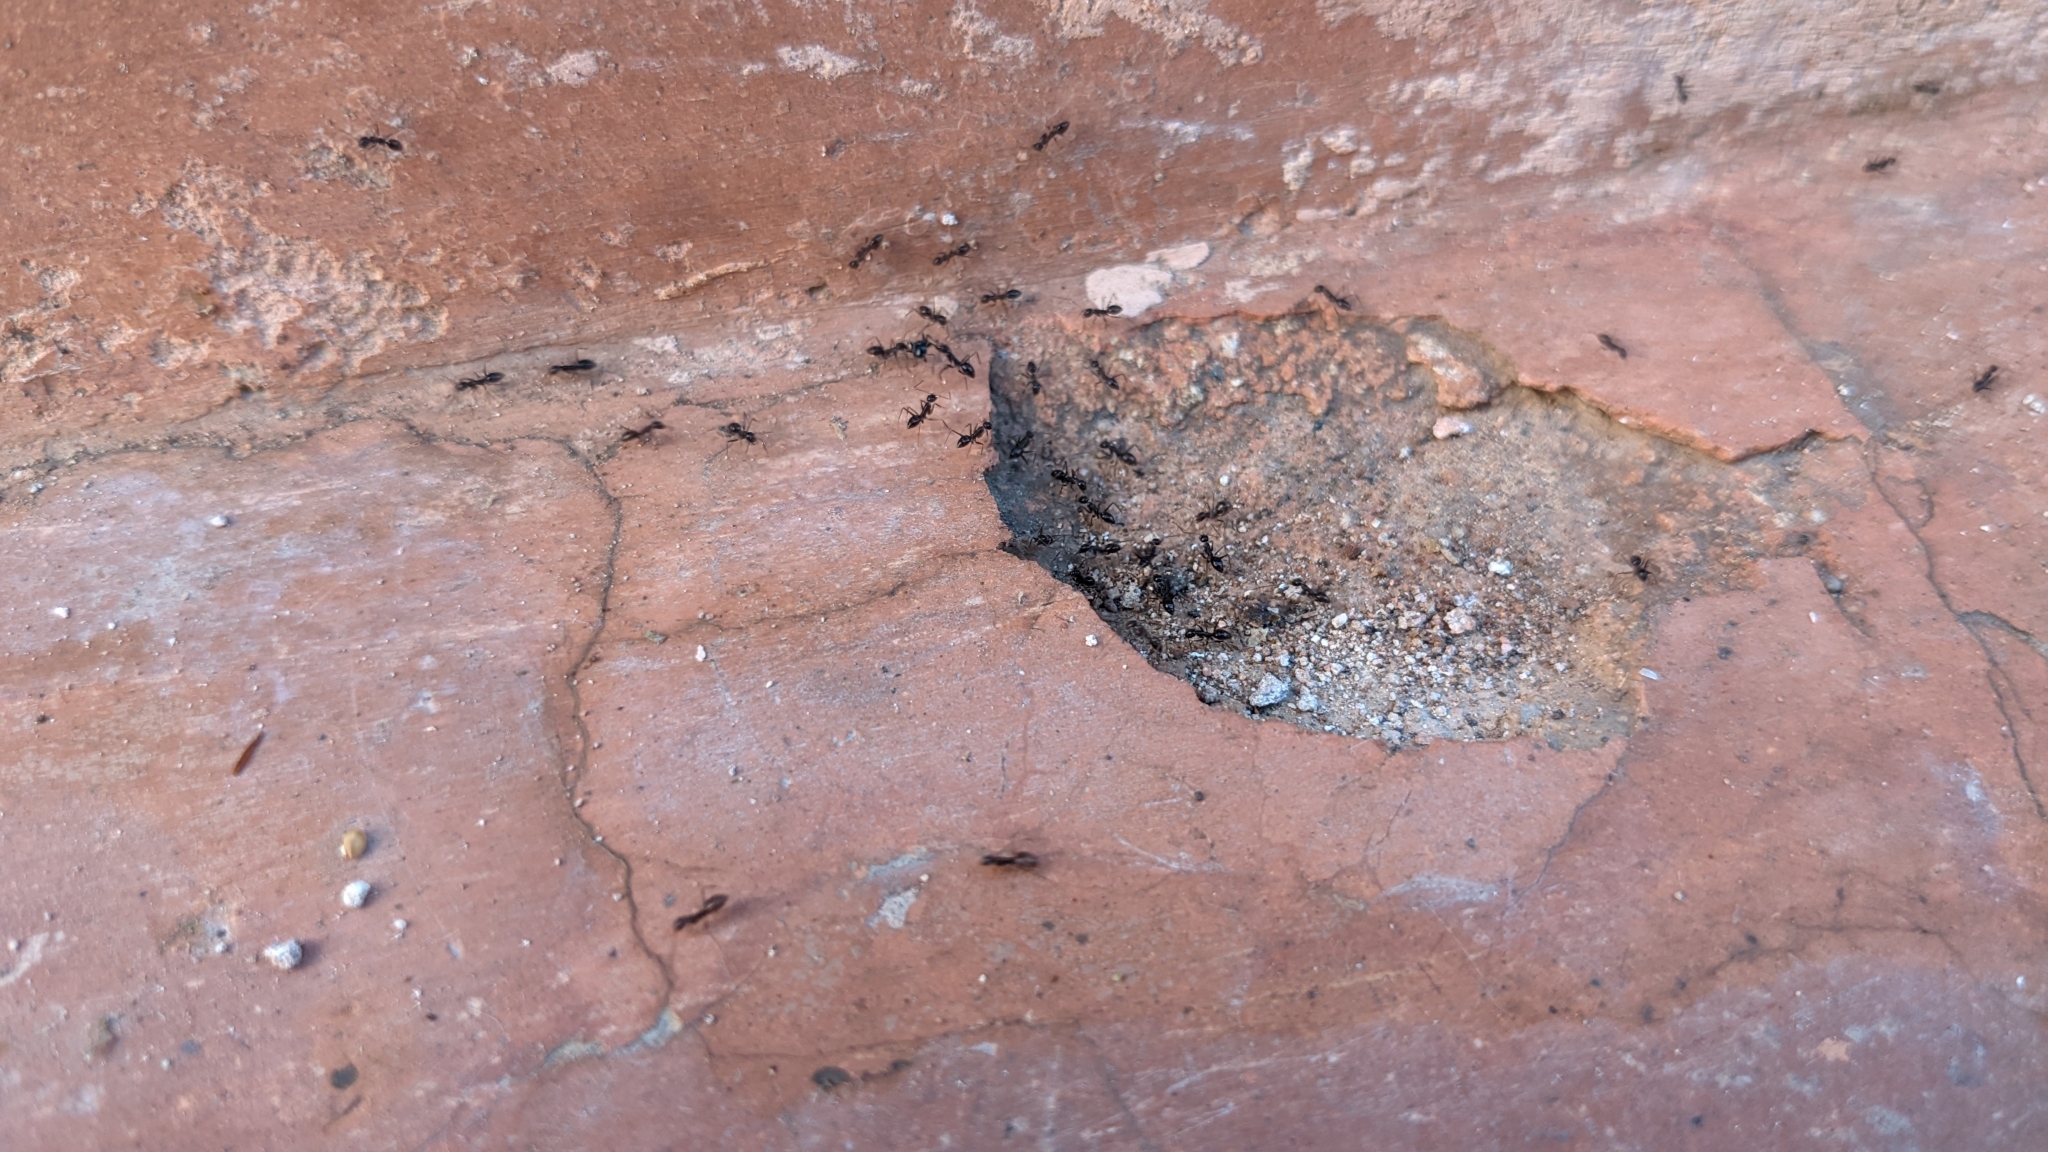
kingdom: Animalia
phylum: Arthropoda
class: Insecta
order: Hymenoptera
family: Formicidae
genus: Paratrechina
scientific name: Paratrechina longicornis
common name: Longhorned crazy ant
